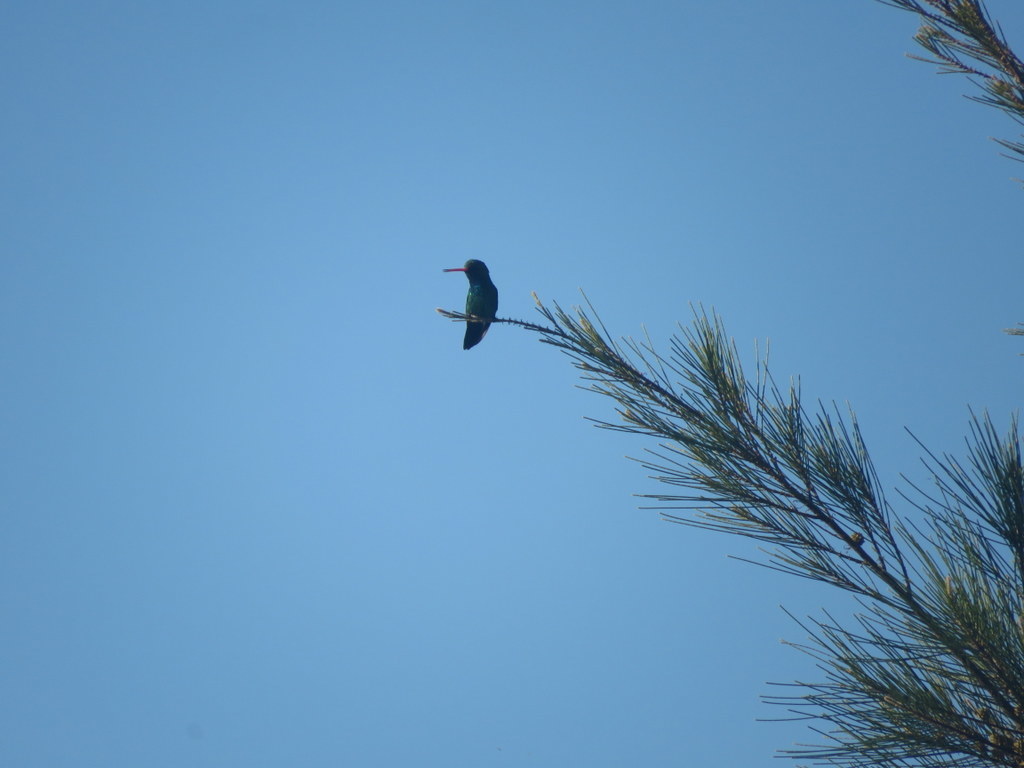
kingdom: Animalia
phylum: Chordata
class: Aves
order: Apodiformes
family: Trochilidae
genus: Chlorostilbon
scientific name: Chlorostilbon lucidus
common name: Glittering-bellied emerald
